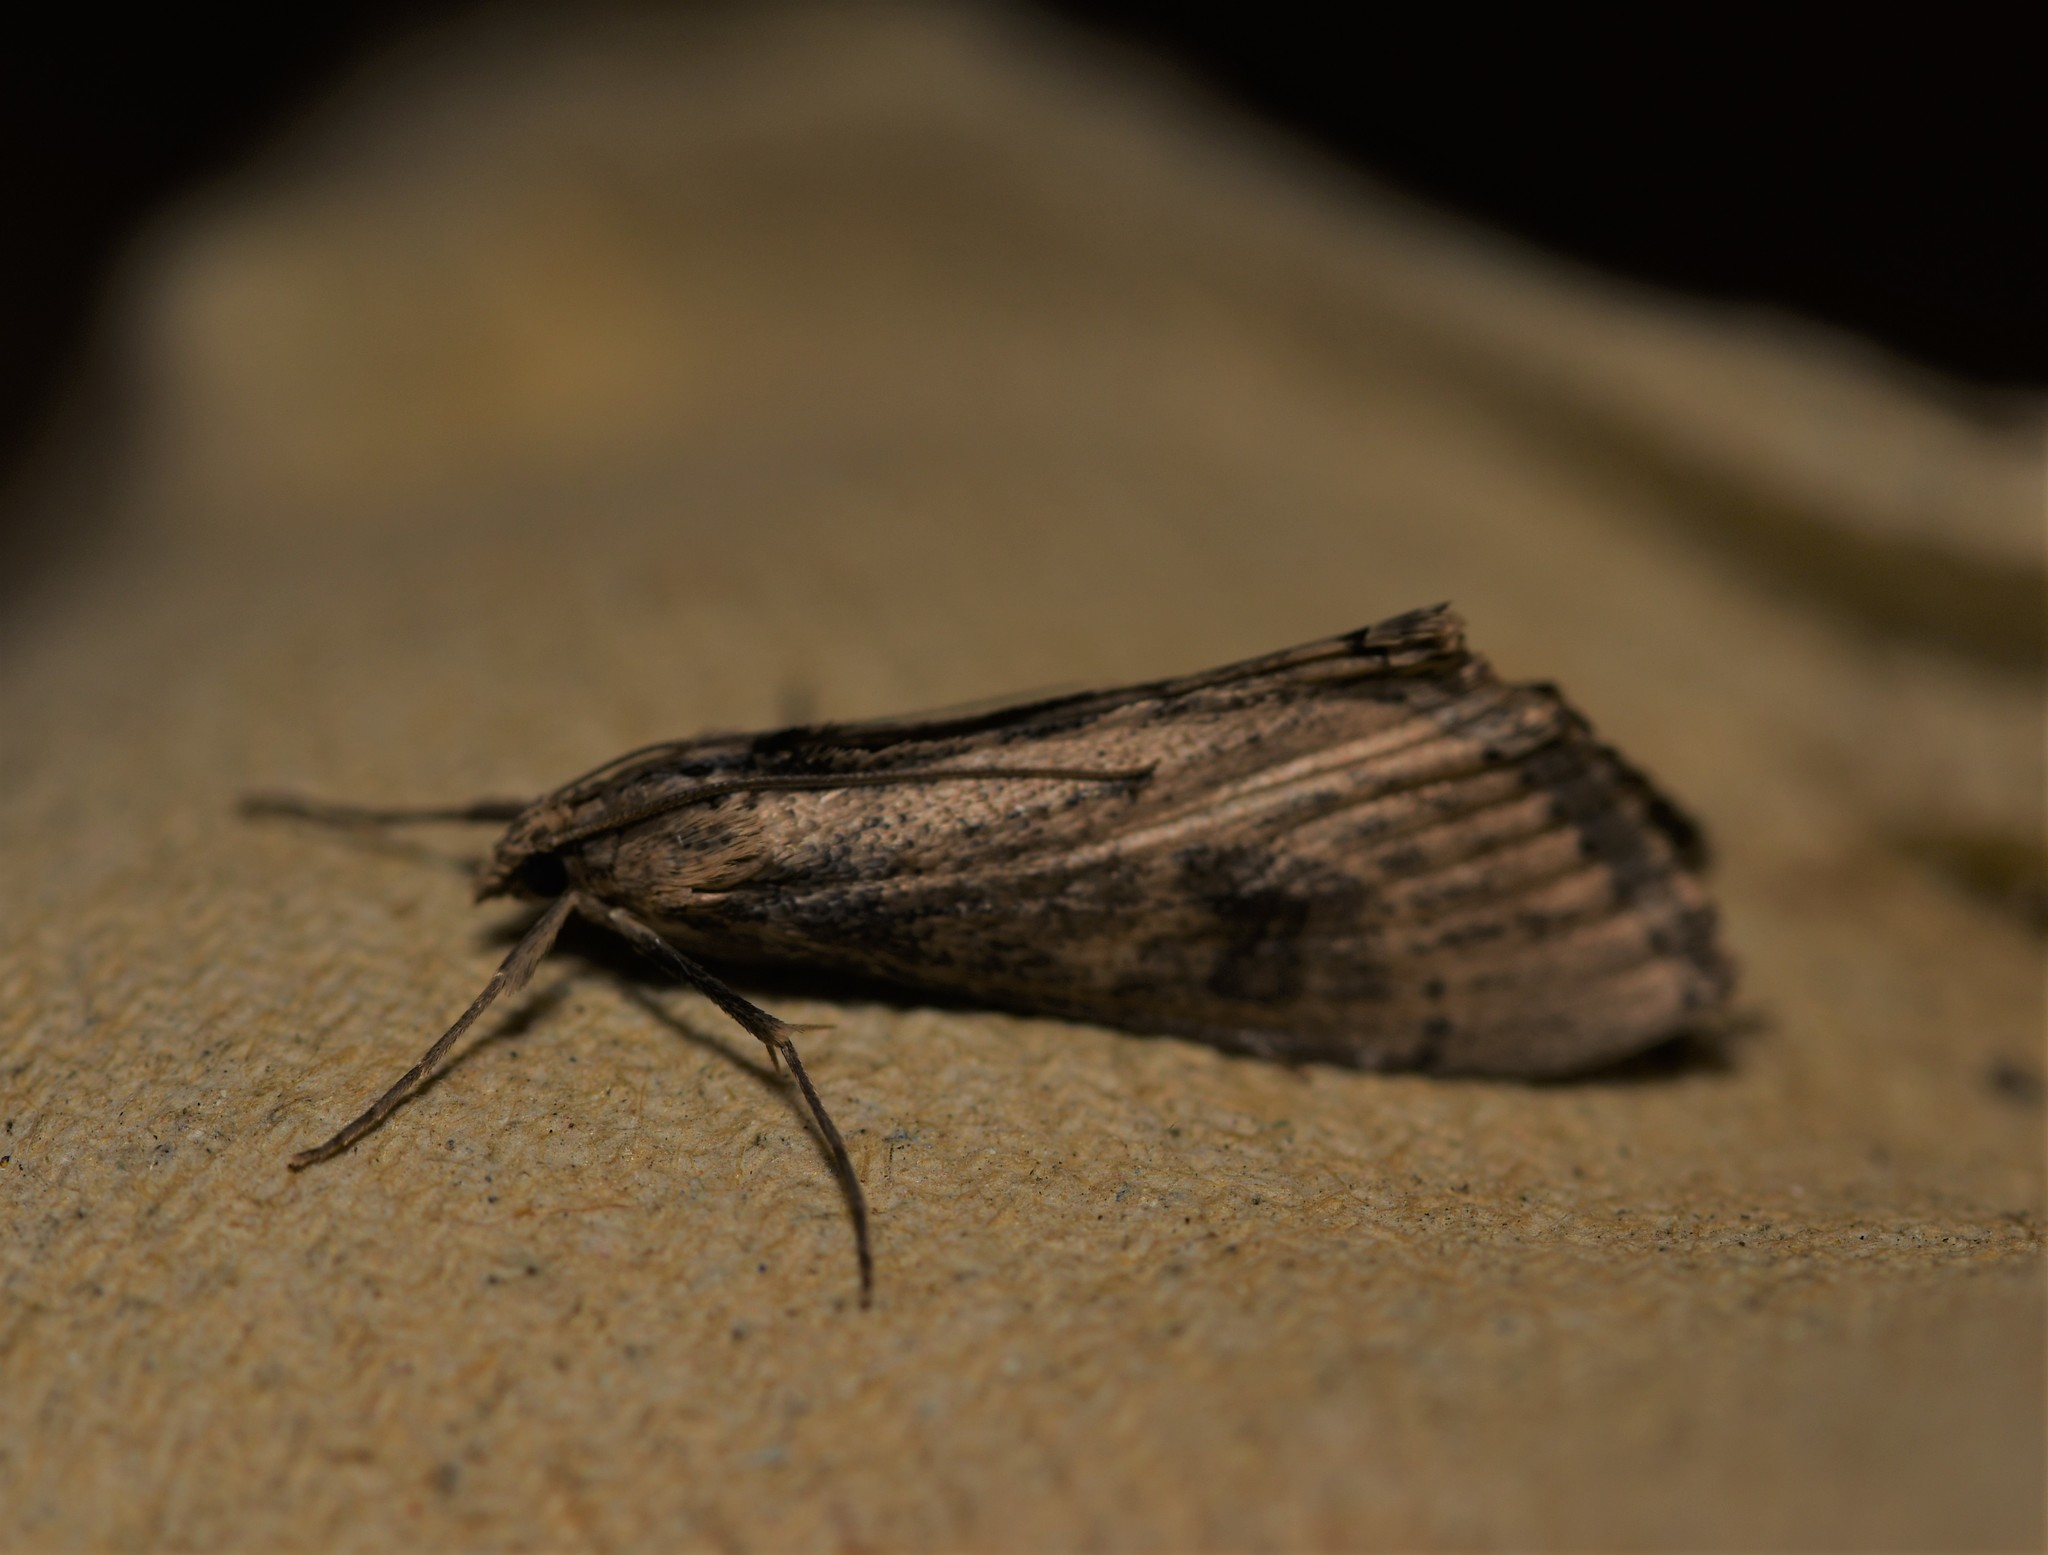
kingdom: Animalia
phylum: Arthropoda
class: Insecta
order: Lepidoptera
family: Crambidae
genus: Evergestis
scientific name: Evergestis isatidalis
